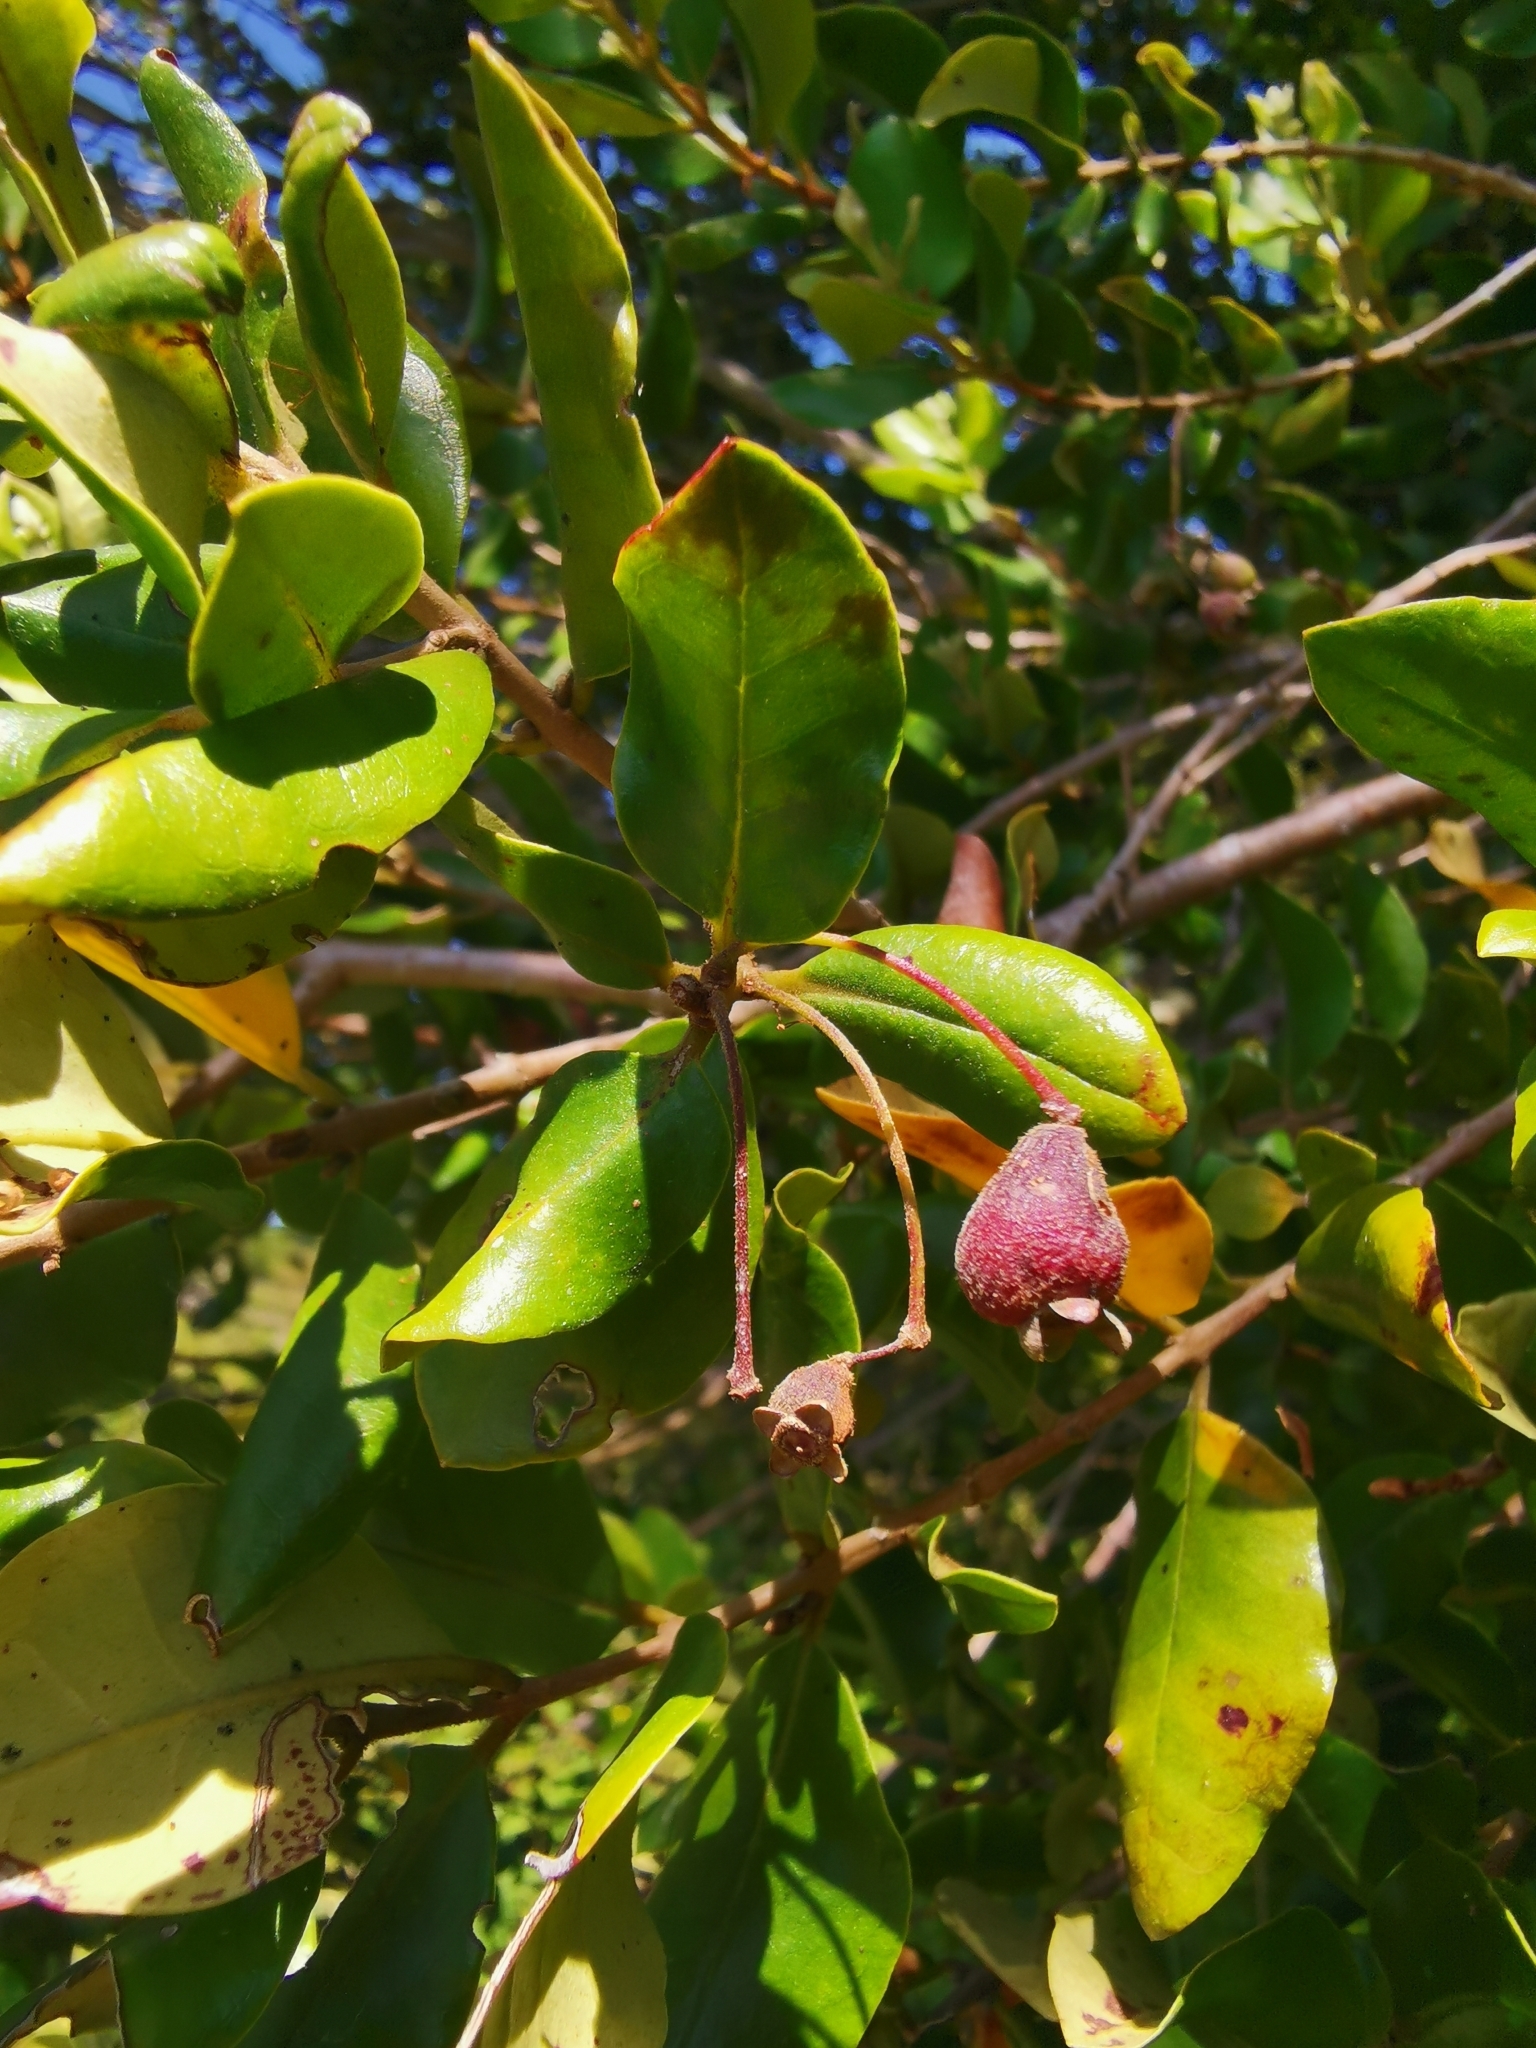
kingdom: Plantae
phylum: Tracheophyta
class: Magnoliopsida
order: Myrtales
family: Myrtaceae
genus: Myrceugenia
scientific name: Myrceugenia exsucca
